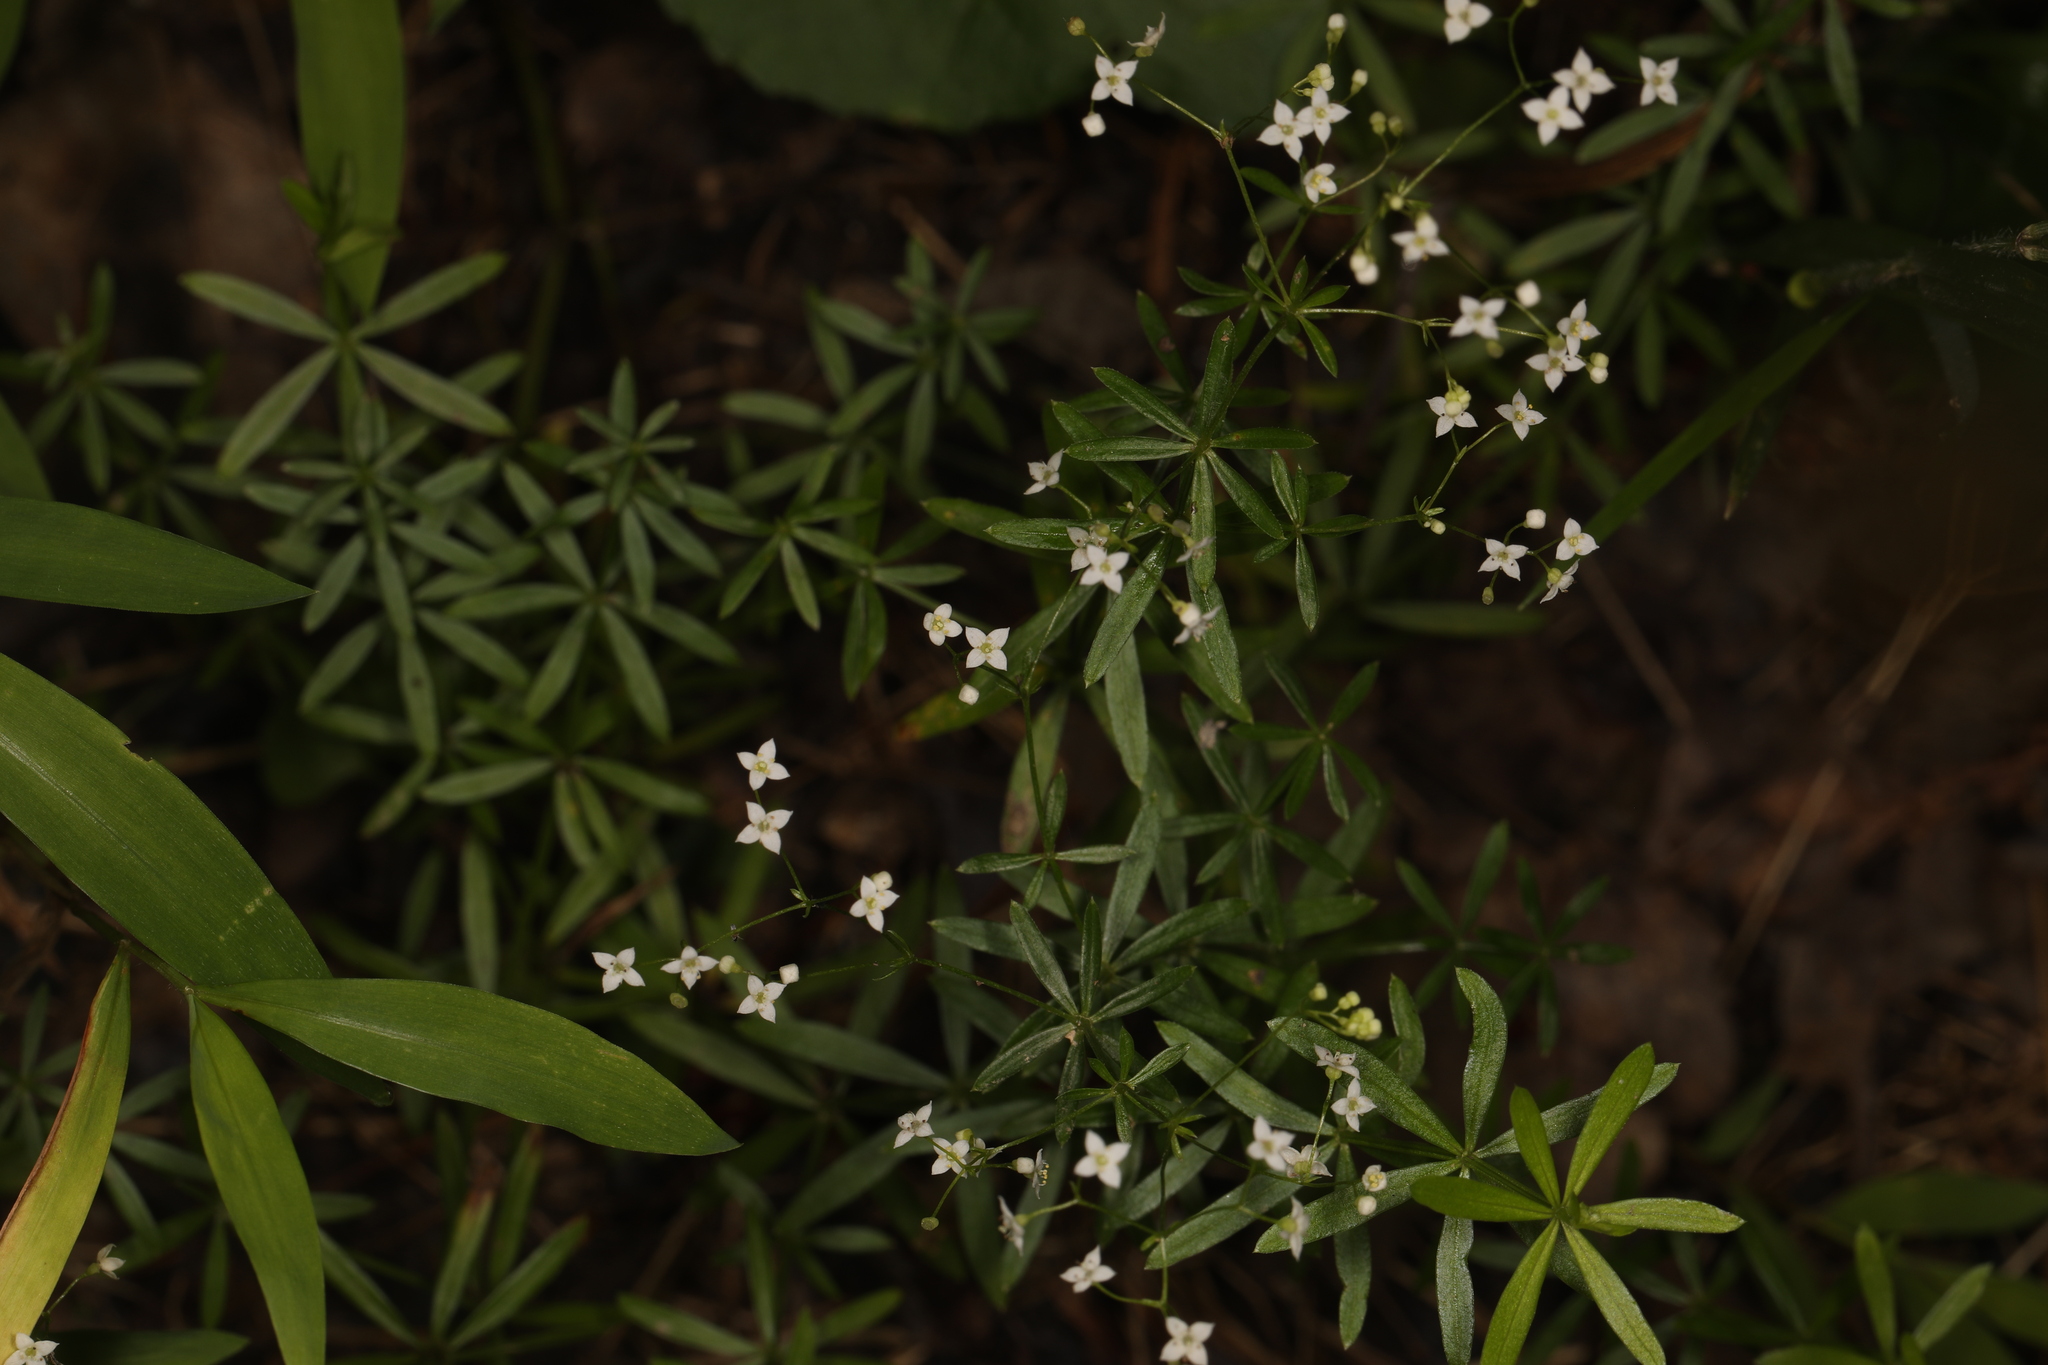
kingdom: Plantae
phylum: Tracheophyta
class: Magnoliopsida
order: Gentianales
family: Rubiaceae
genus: Galium
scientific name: Galium concinnum
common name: Shining bedstraw
